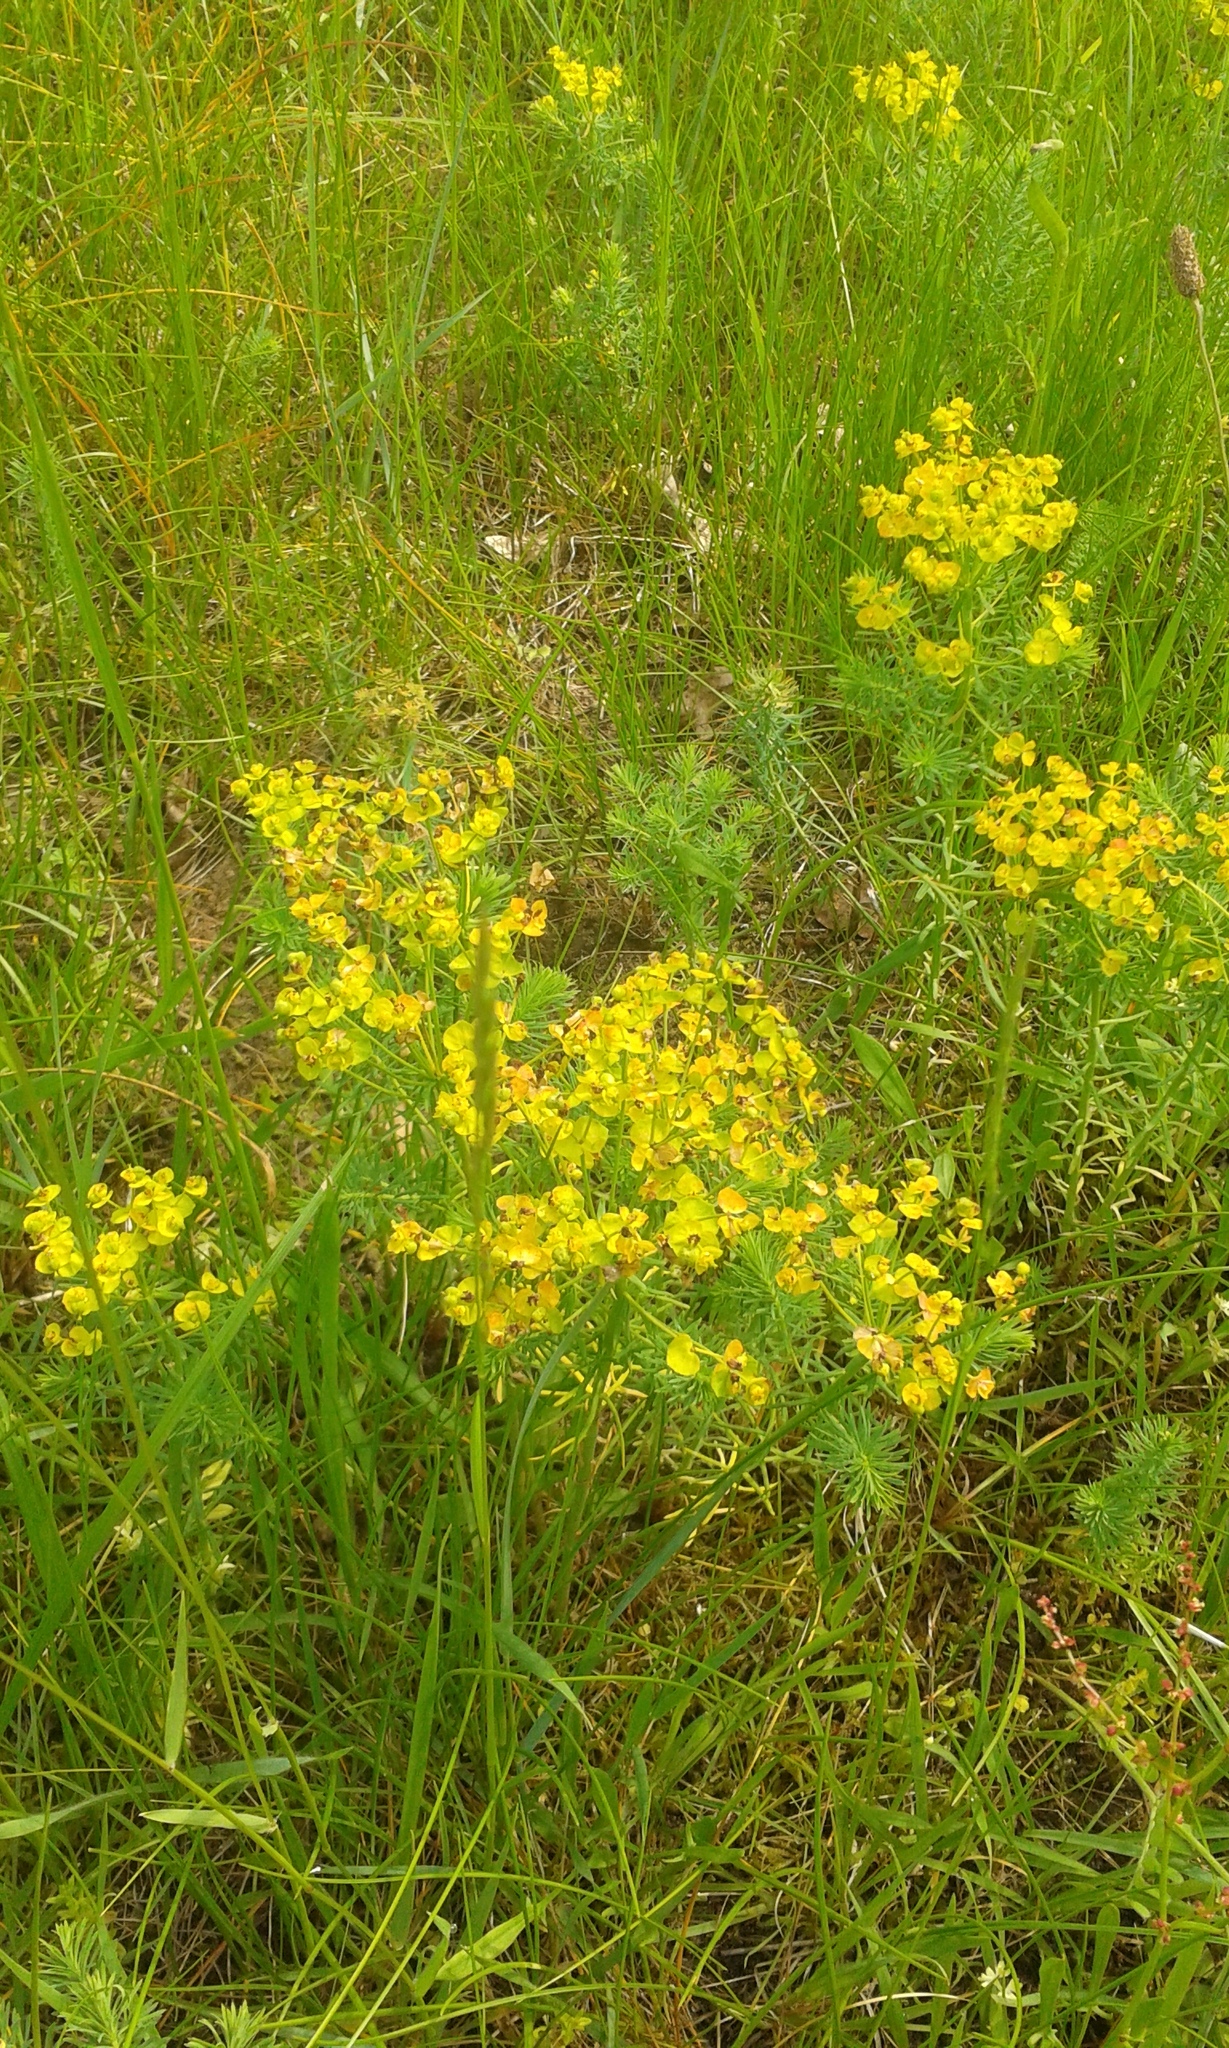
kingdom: Plantae
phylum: Tracheophyta
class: Magnoliopsida
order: Malpighiales
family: Euphorbiaceae
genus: Euphorbia
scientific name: Euphorbia cyparissias
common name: Cypress spurge
